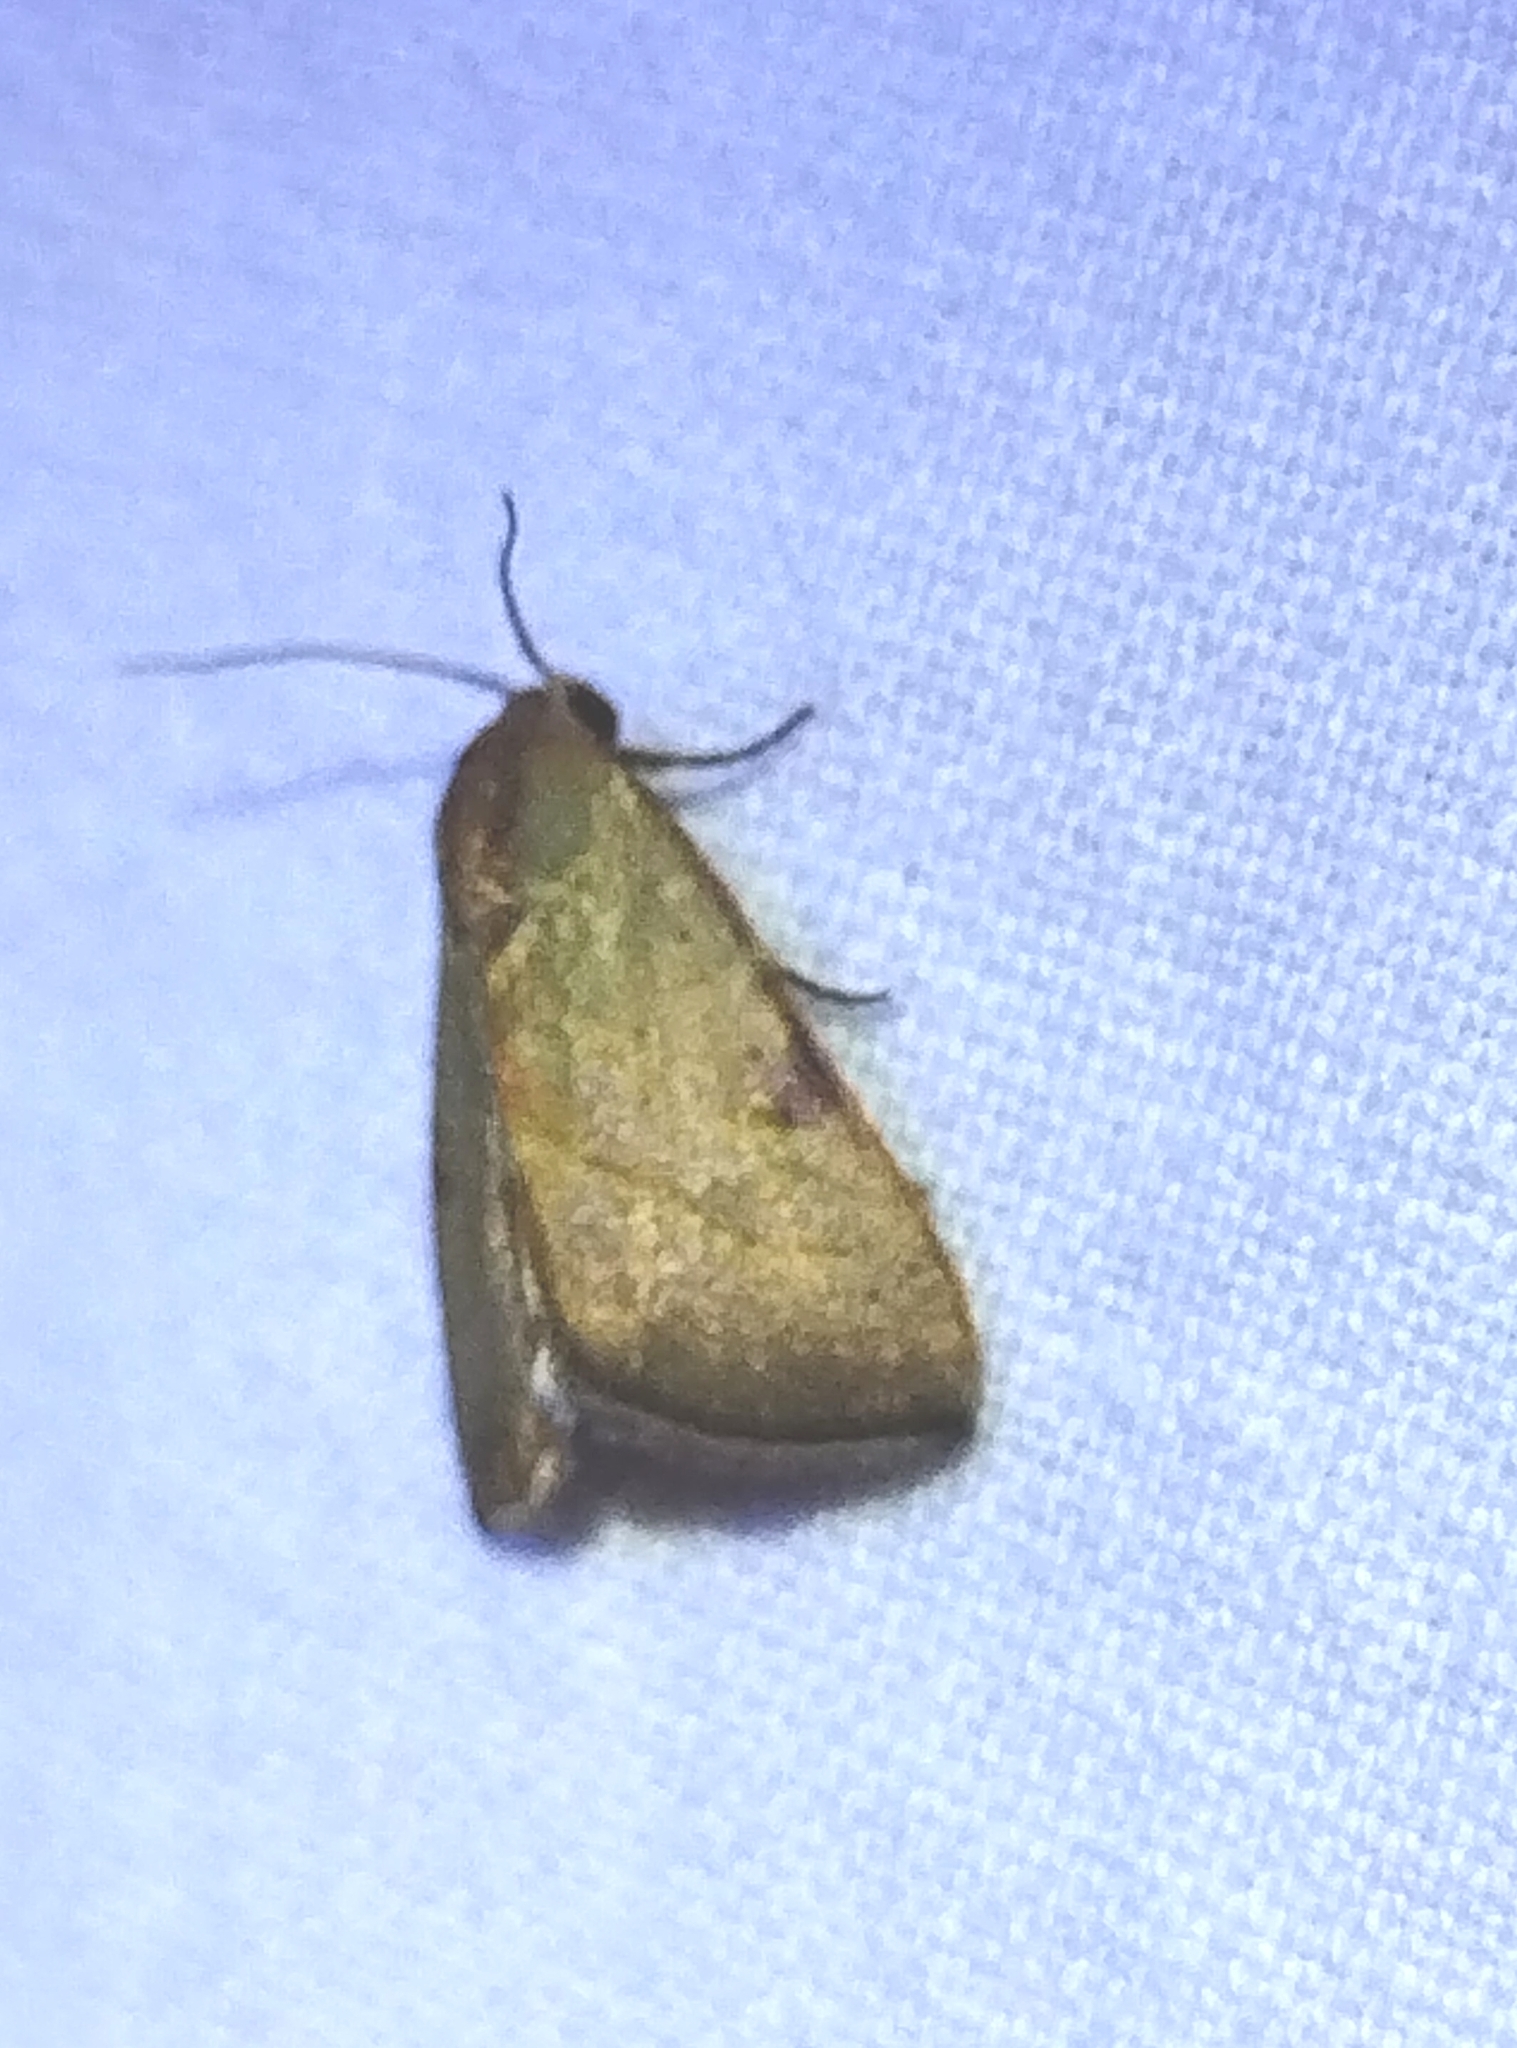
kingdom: Animalia
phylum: Arthropoda
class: Insecta
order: Lepidoptera
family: Noctuidae
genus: Galgula
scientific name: Galgula partita
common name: Wedgeling
